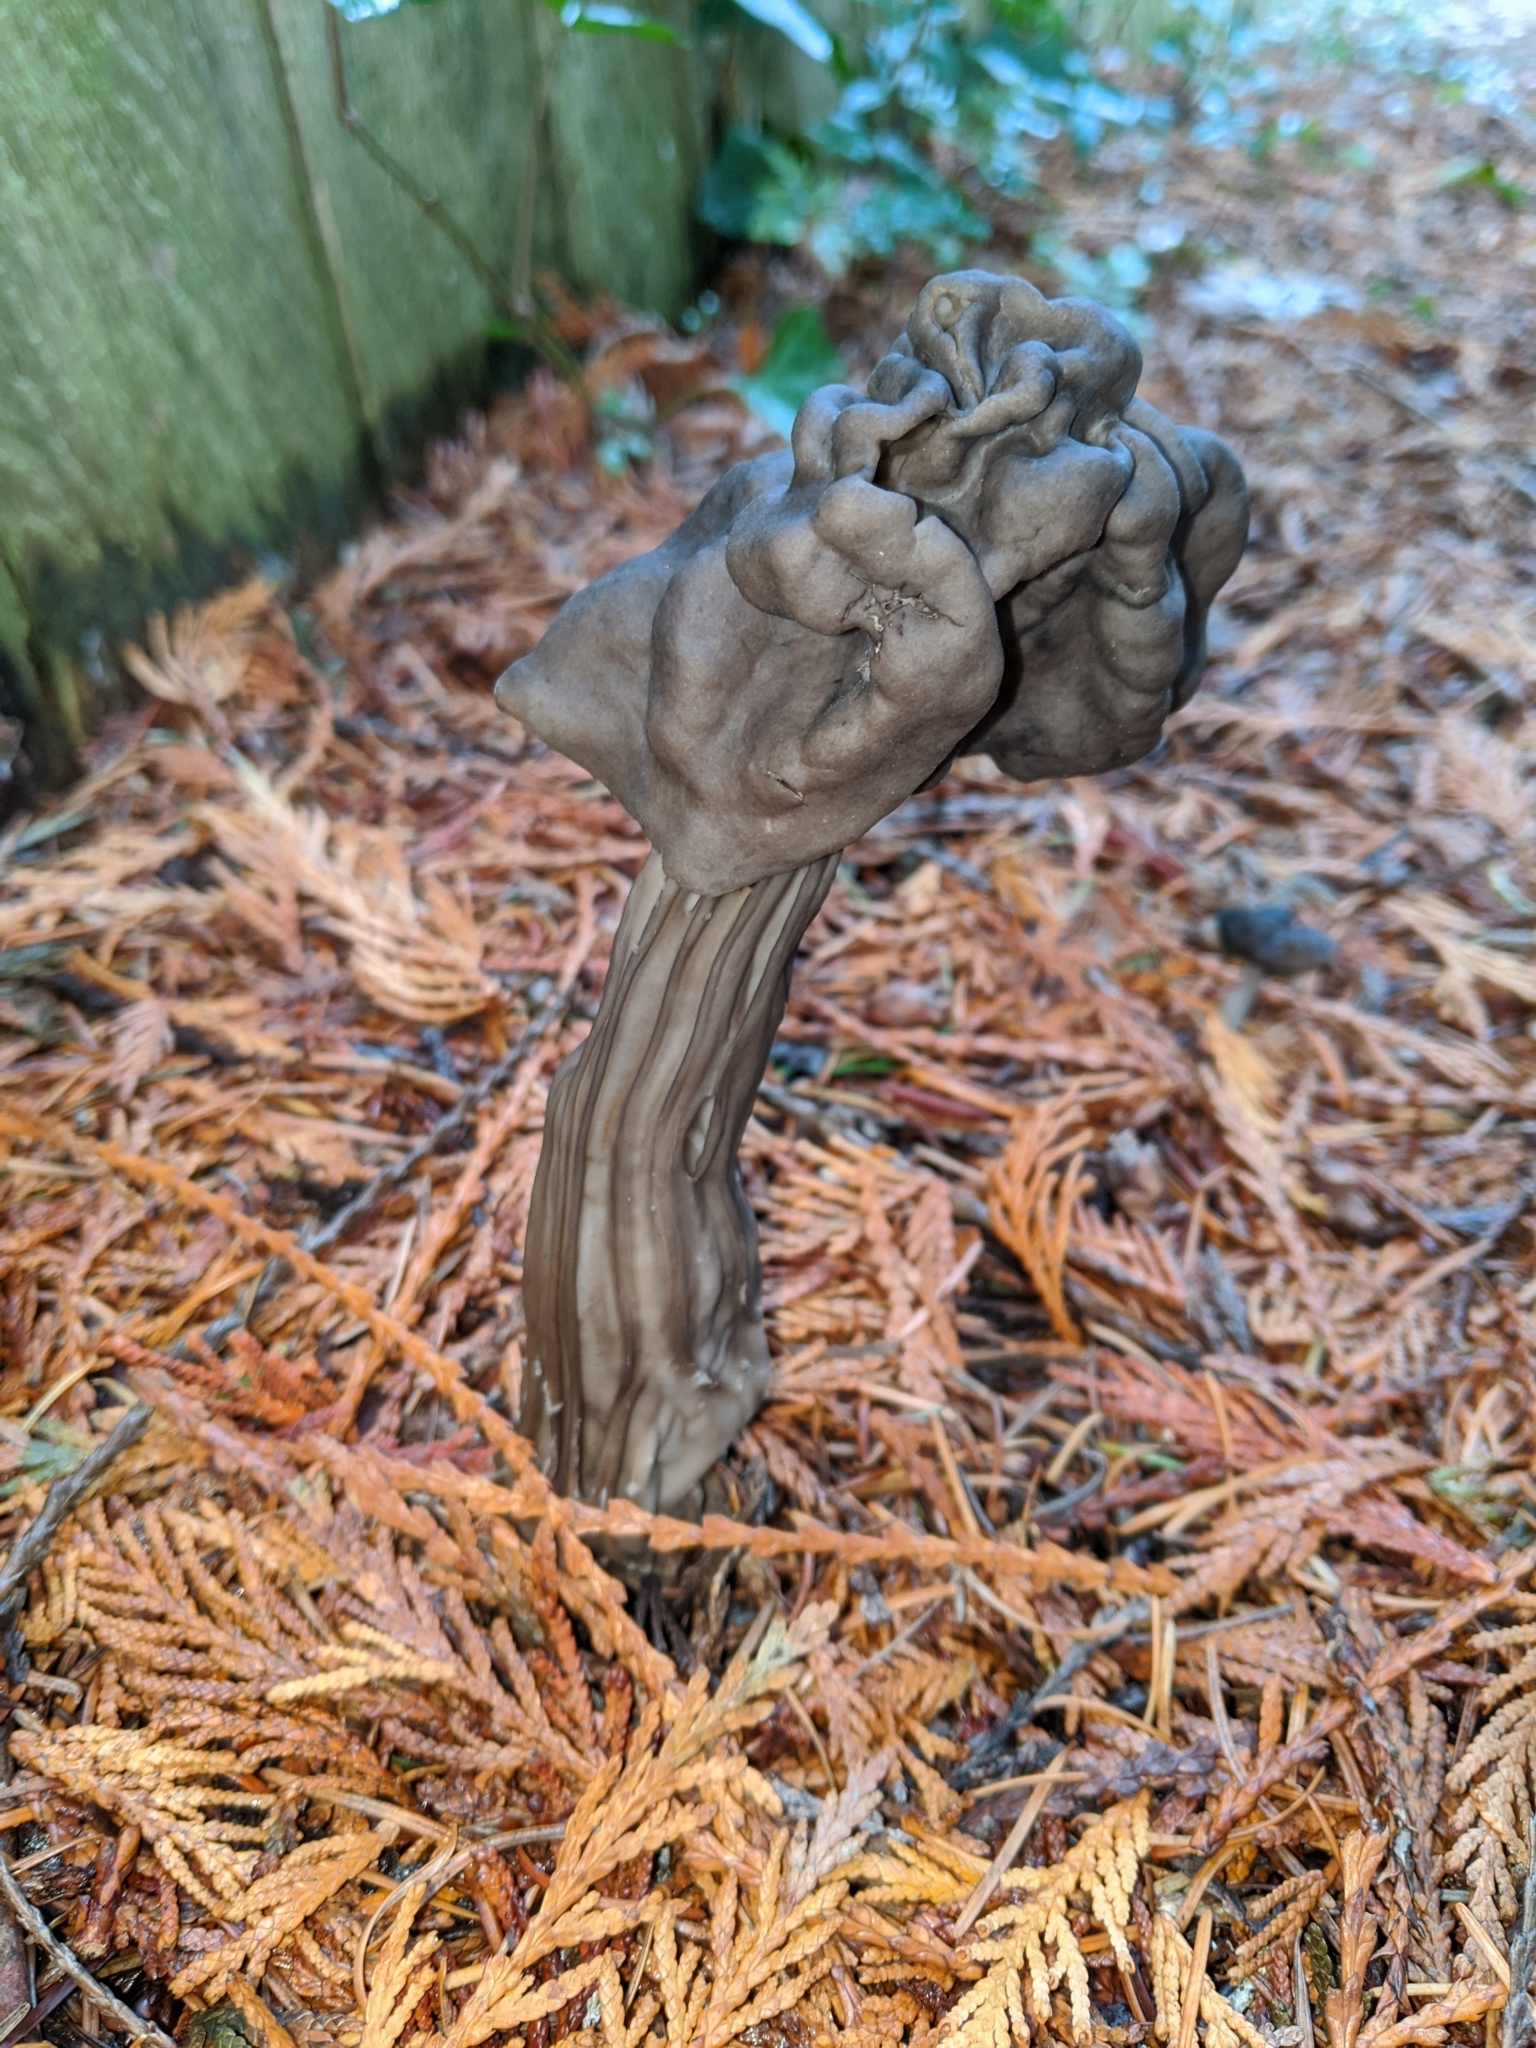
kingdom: Fungi
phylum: Ascomycota
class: Pezizomycetes
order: Pezizales
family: Helvellaceae
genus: Helvella
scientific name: Helvella vespertina
